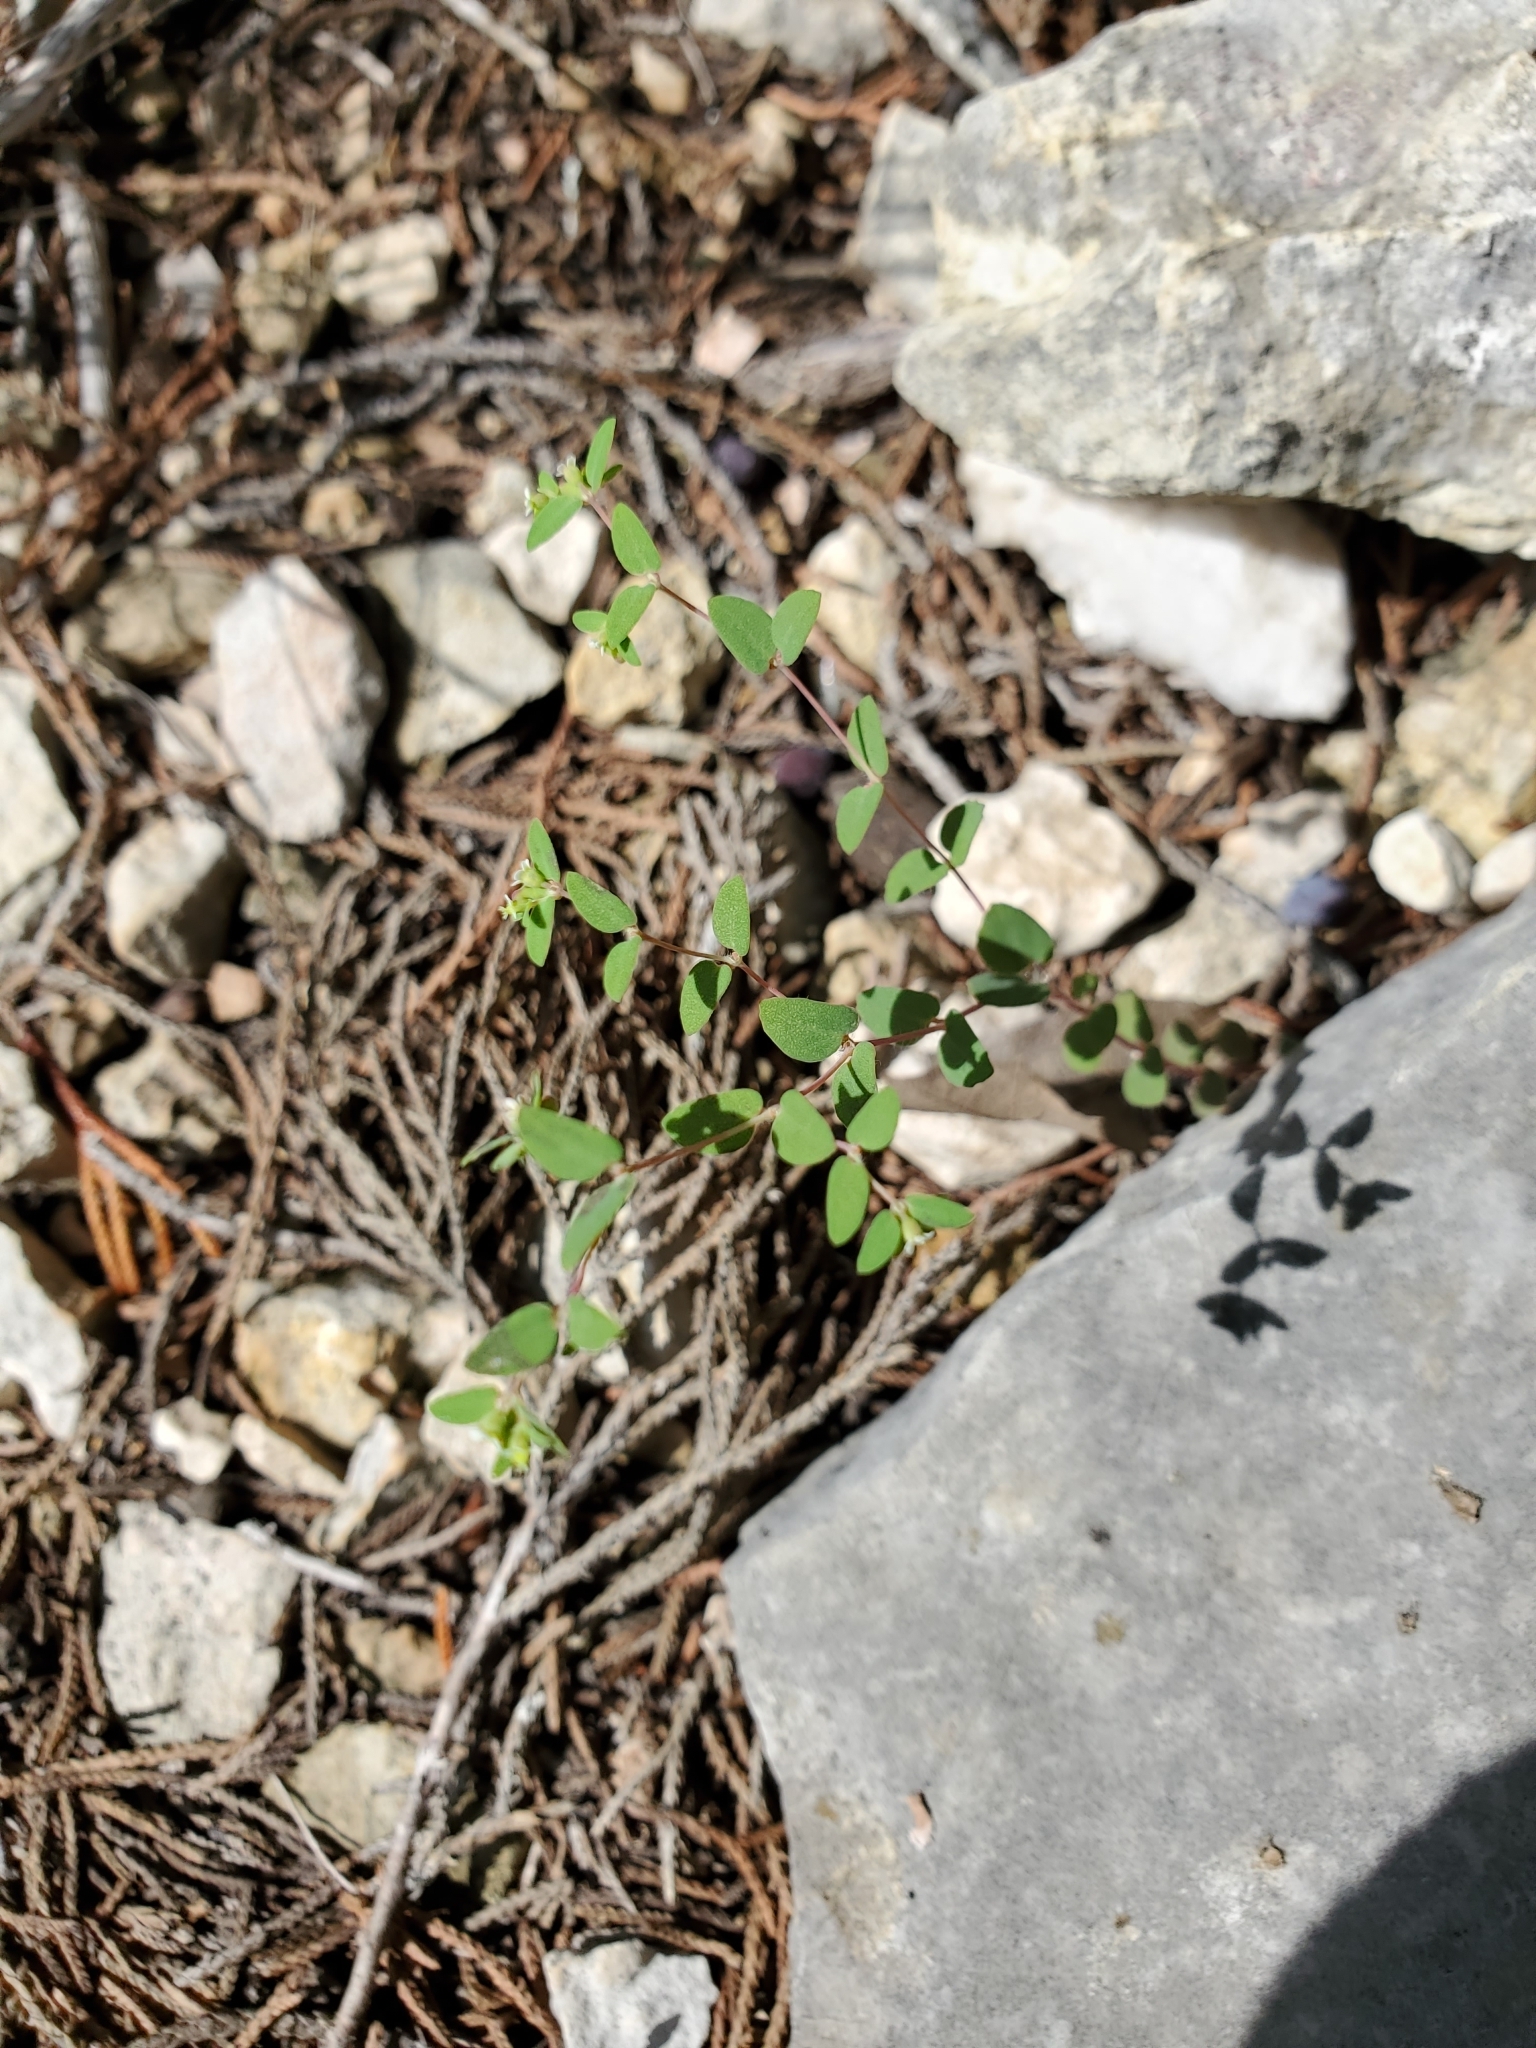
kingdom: Plantae
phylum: Tracheophyta
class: Magnoliopsida
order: Malpighiales
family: Euphorbiaceae
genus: Euphorbia
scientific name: Euphorbia villifera
